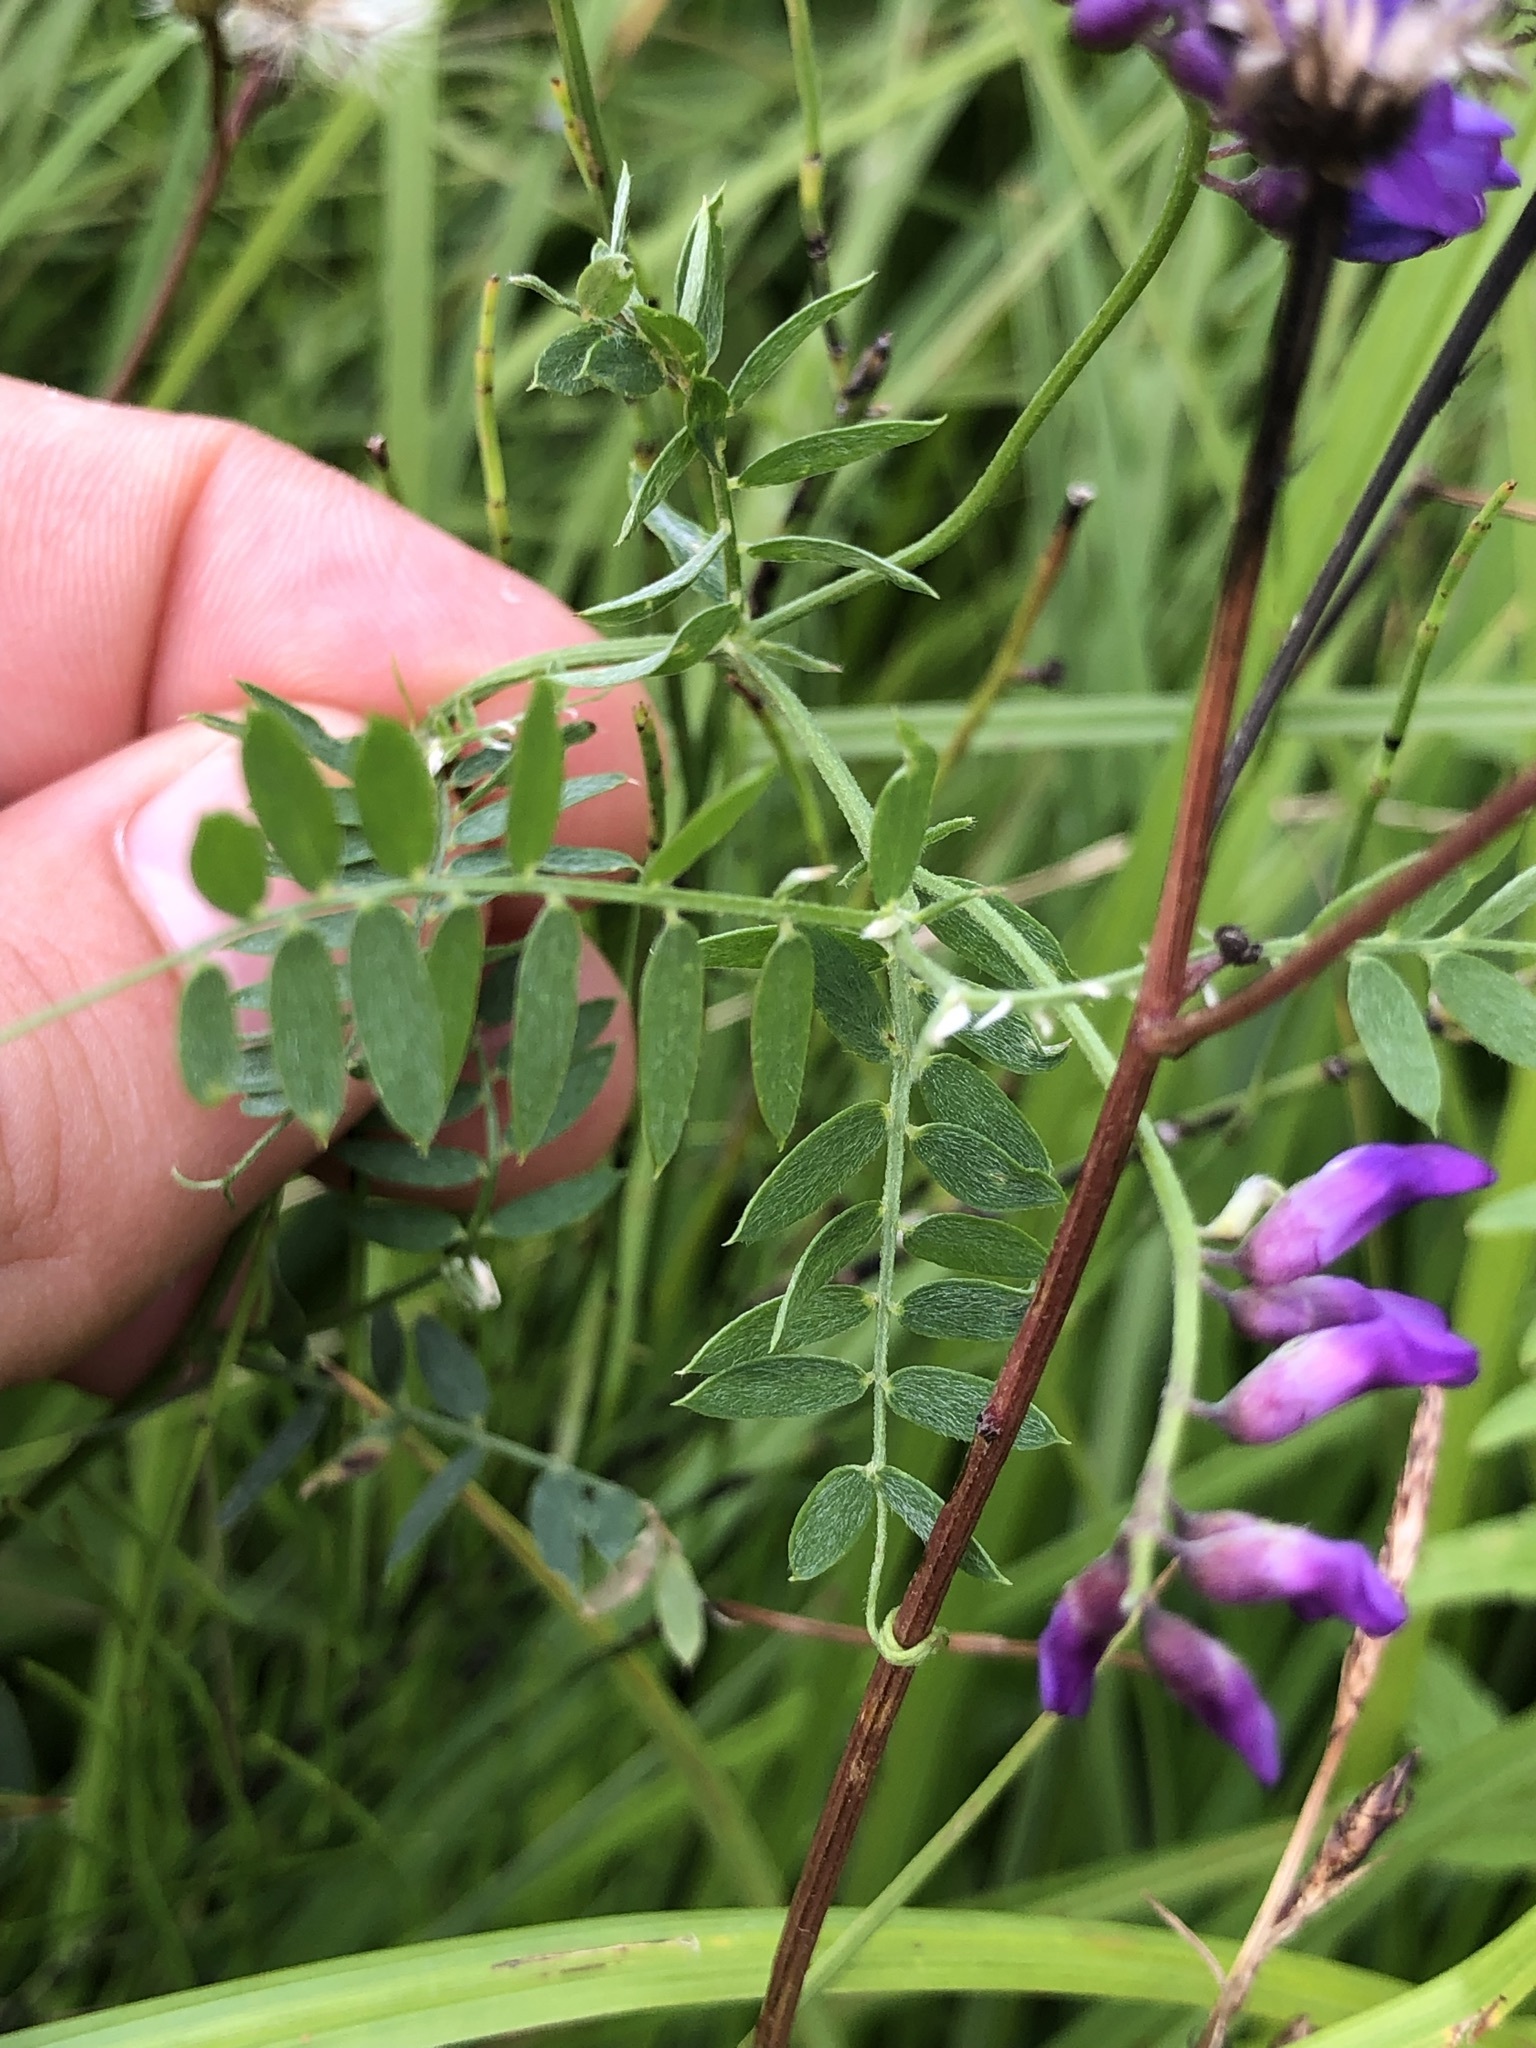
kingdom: Plantae
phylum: Tracheophyta
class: Magnoliopsida
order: Fabales
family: Fabaceae
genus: Vicia
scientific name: Vicia cracca
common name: Bird vetch
